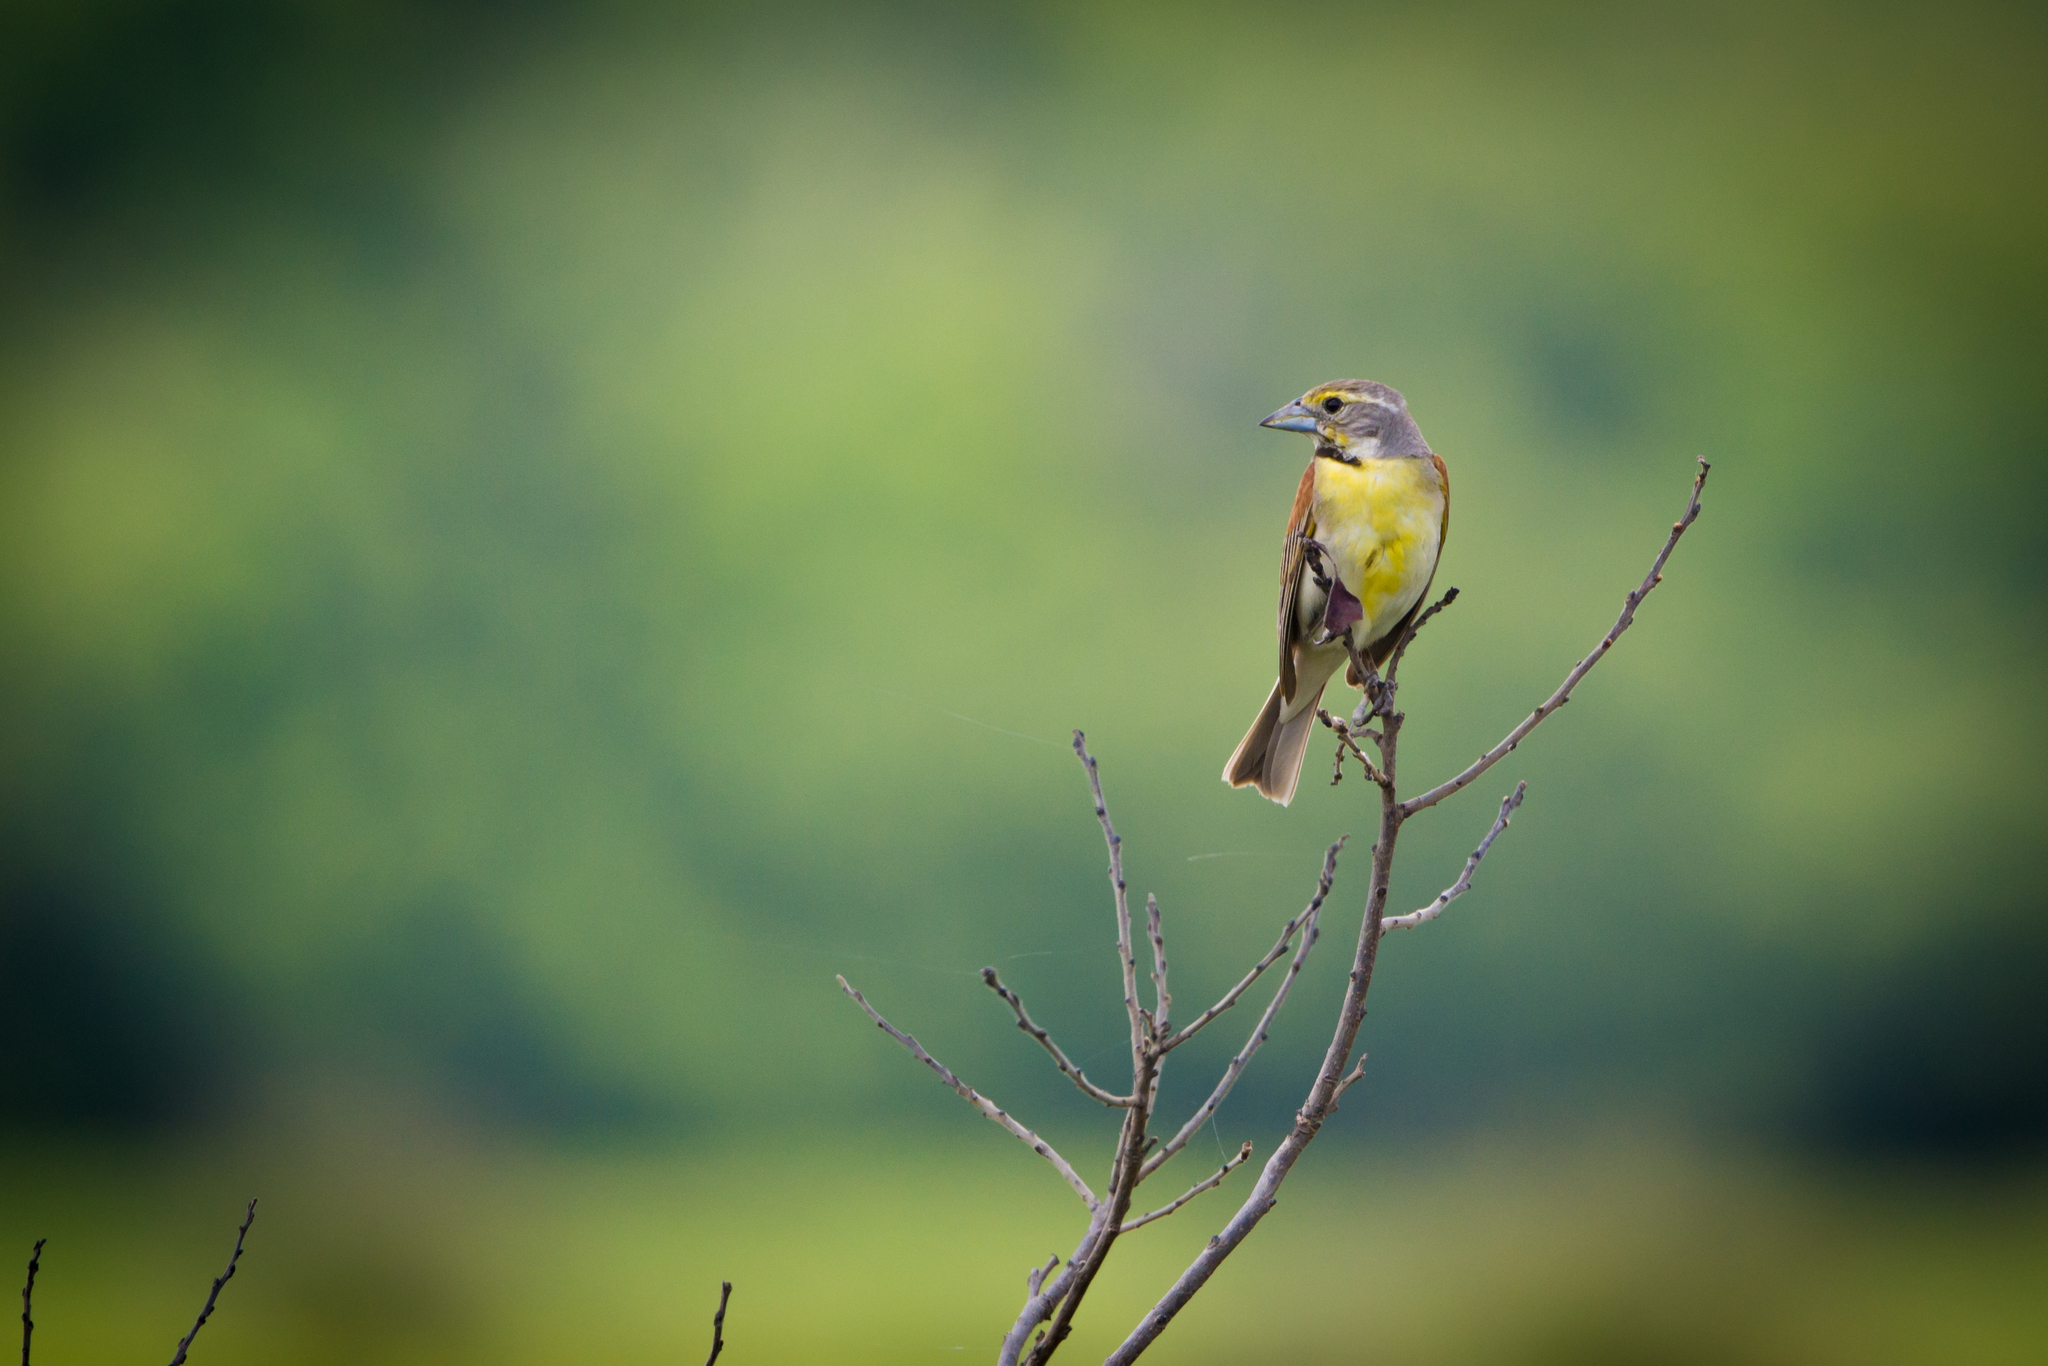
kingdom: Animalia
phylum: Chordata
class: Aves
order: Passeriformes
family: Cardinalidae
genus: Spiza
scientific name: Spiza americana
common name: Dickcissel
